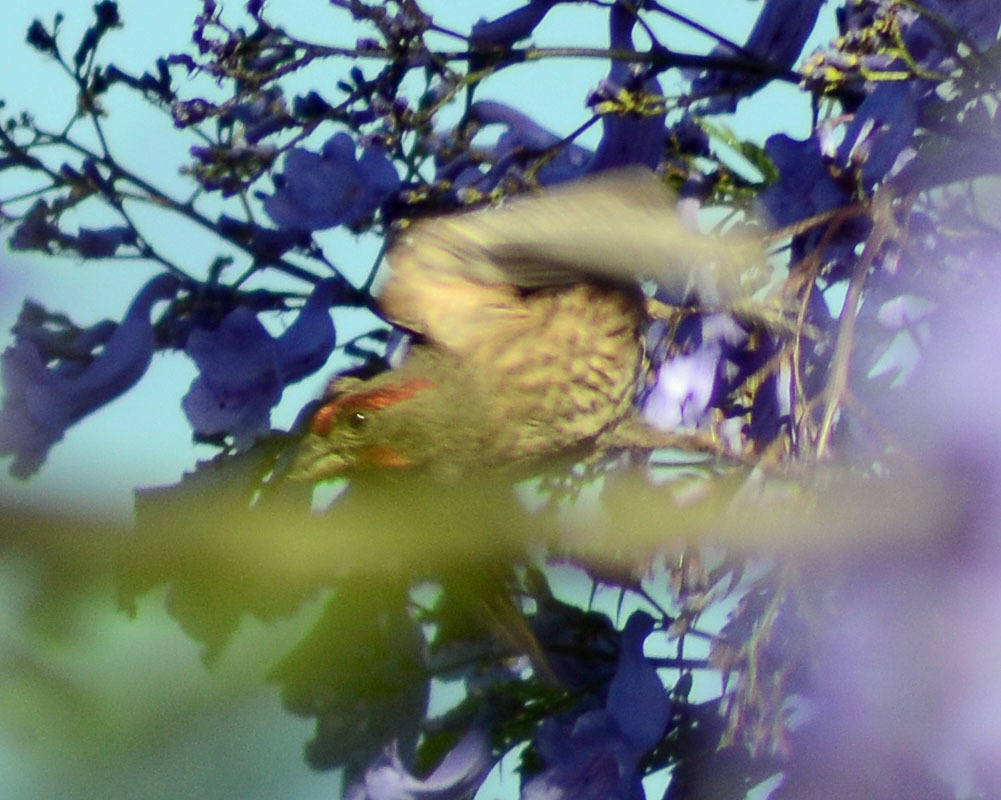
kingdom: Animalia
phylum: Chordata
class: Aves
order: Passeriformes
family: Fringillidae
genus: Haemorhous
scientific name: Haemorhous mexicanus
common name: House finch
